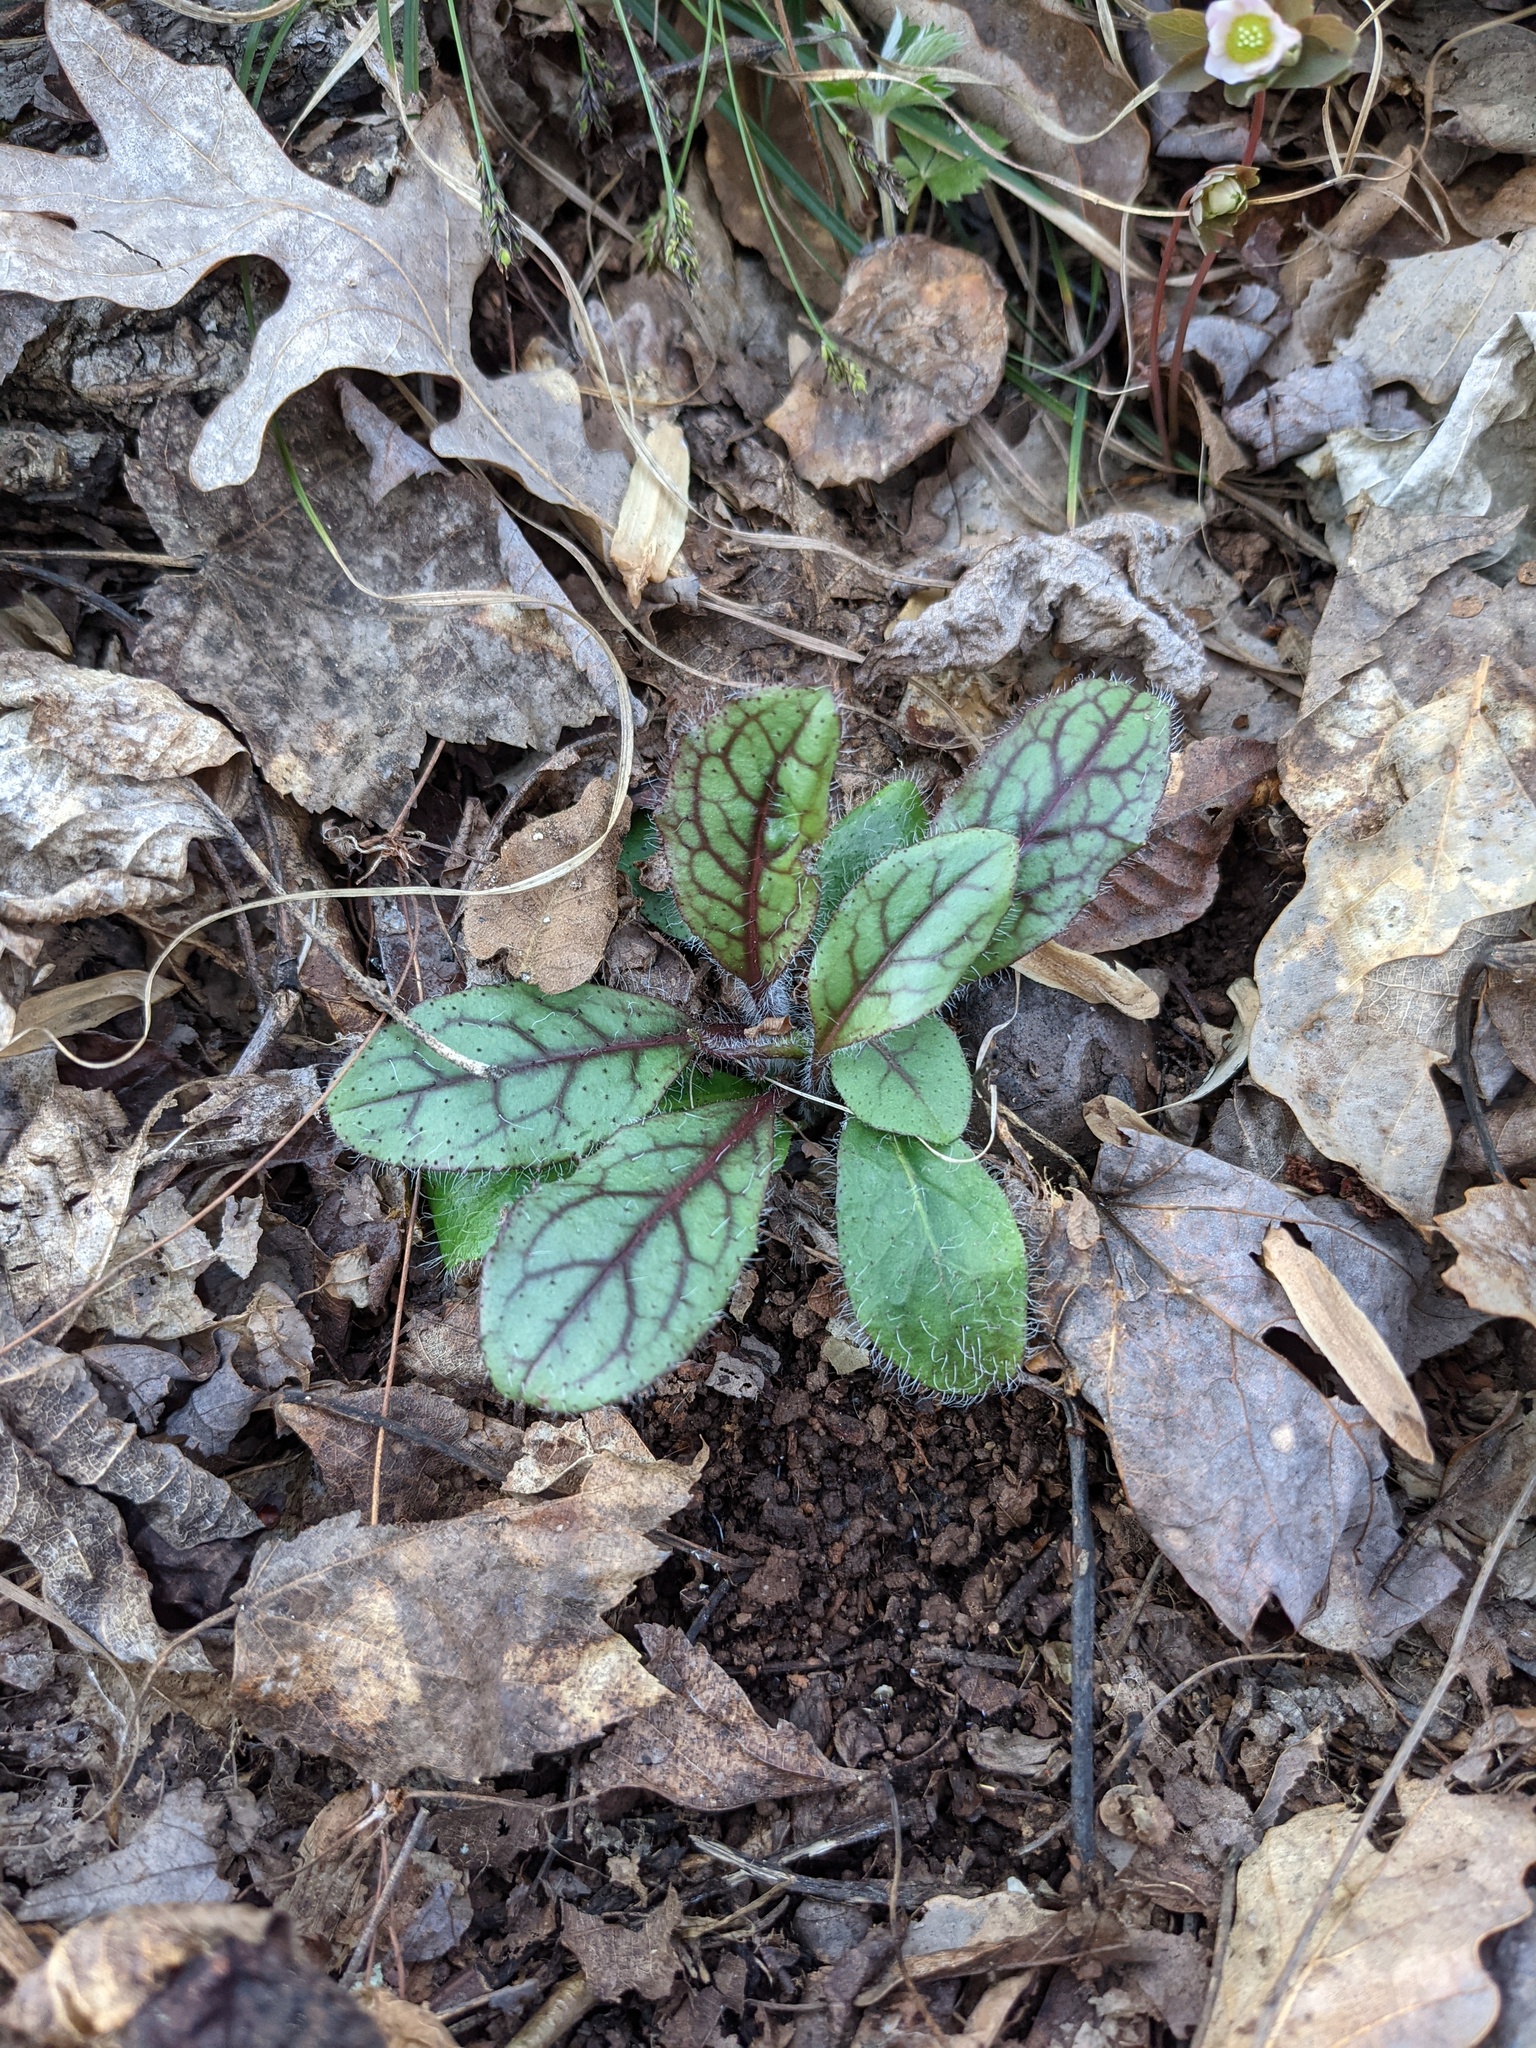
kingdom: Plantae
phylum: Tracheophyta
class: Magnoliopsida
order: Asterales
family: Asteraceae
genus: Hieracium
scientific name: Hieracium venosum
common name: Rattlesnake hawkweed
